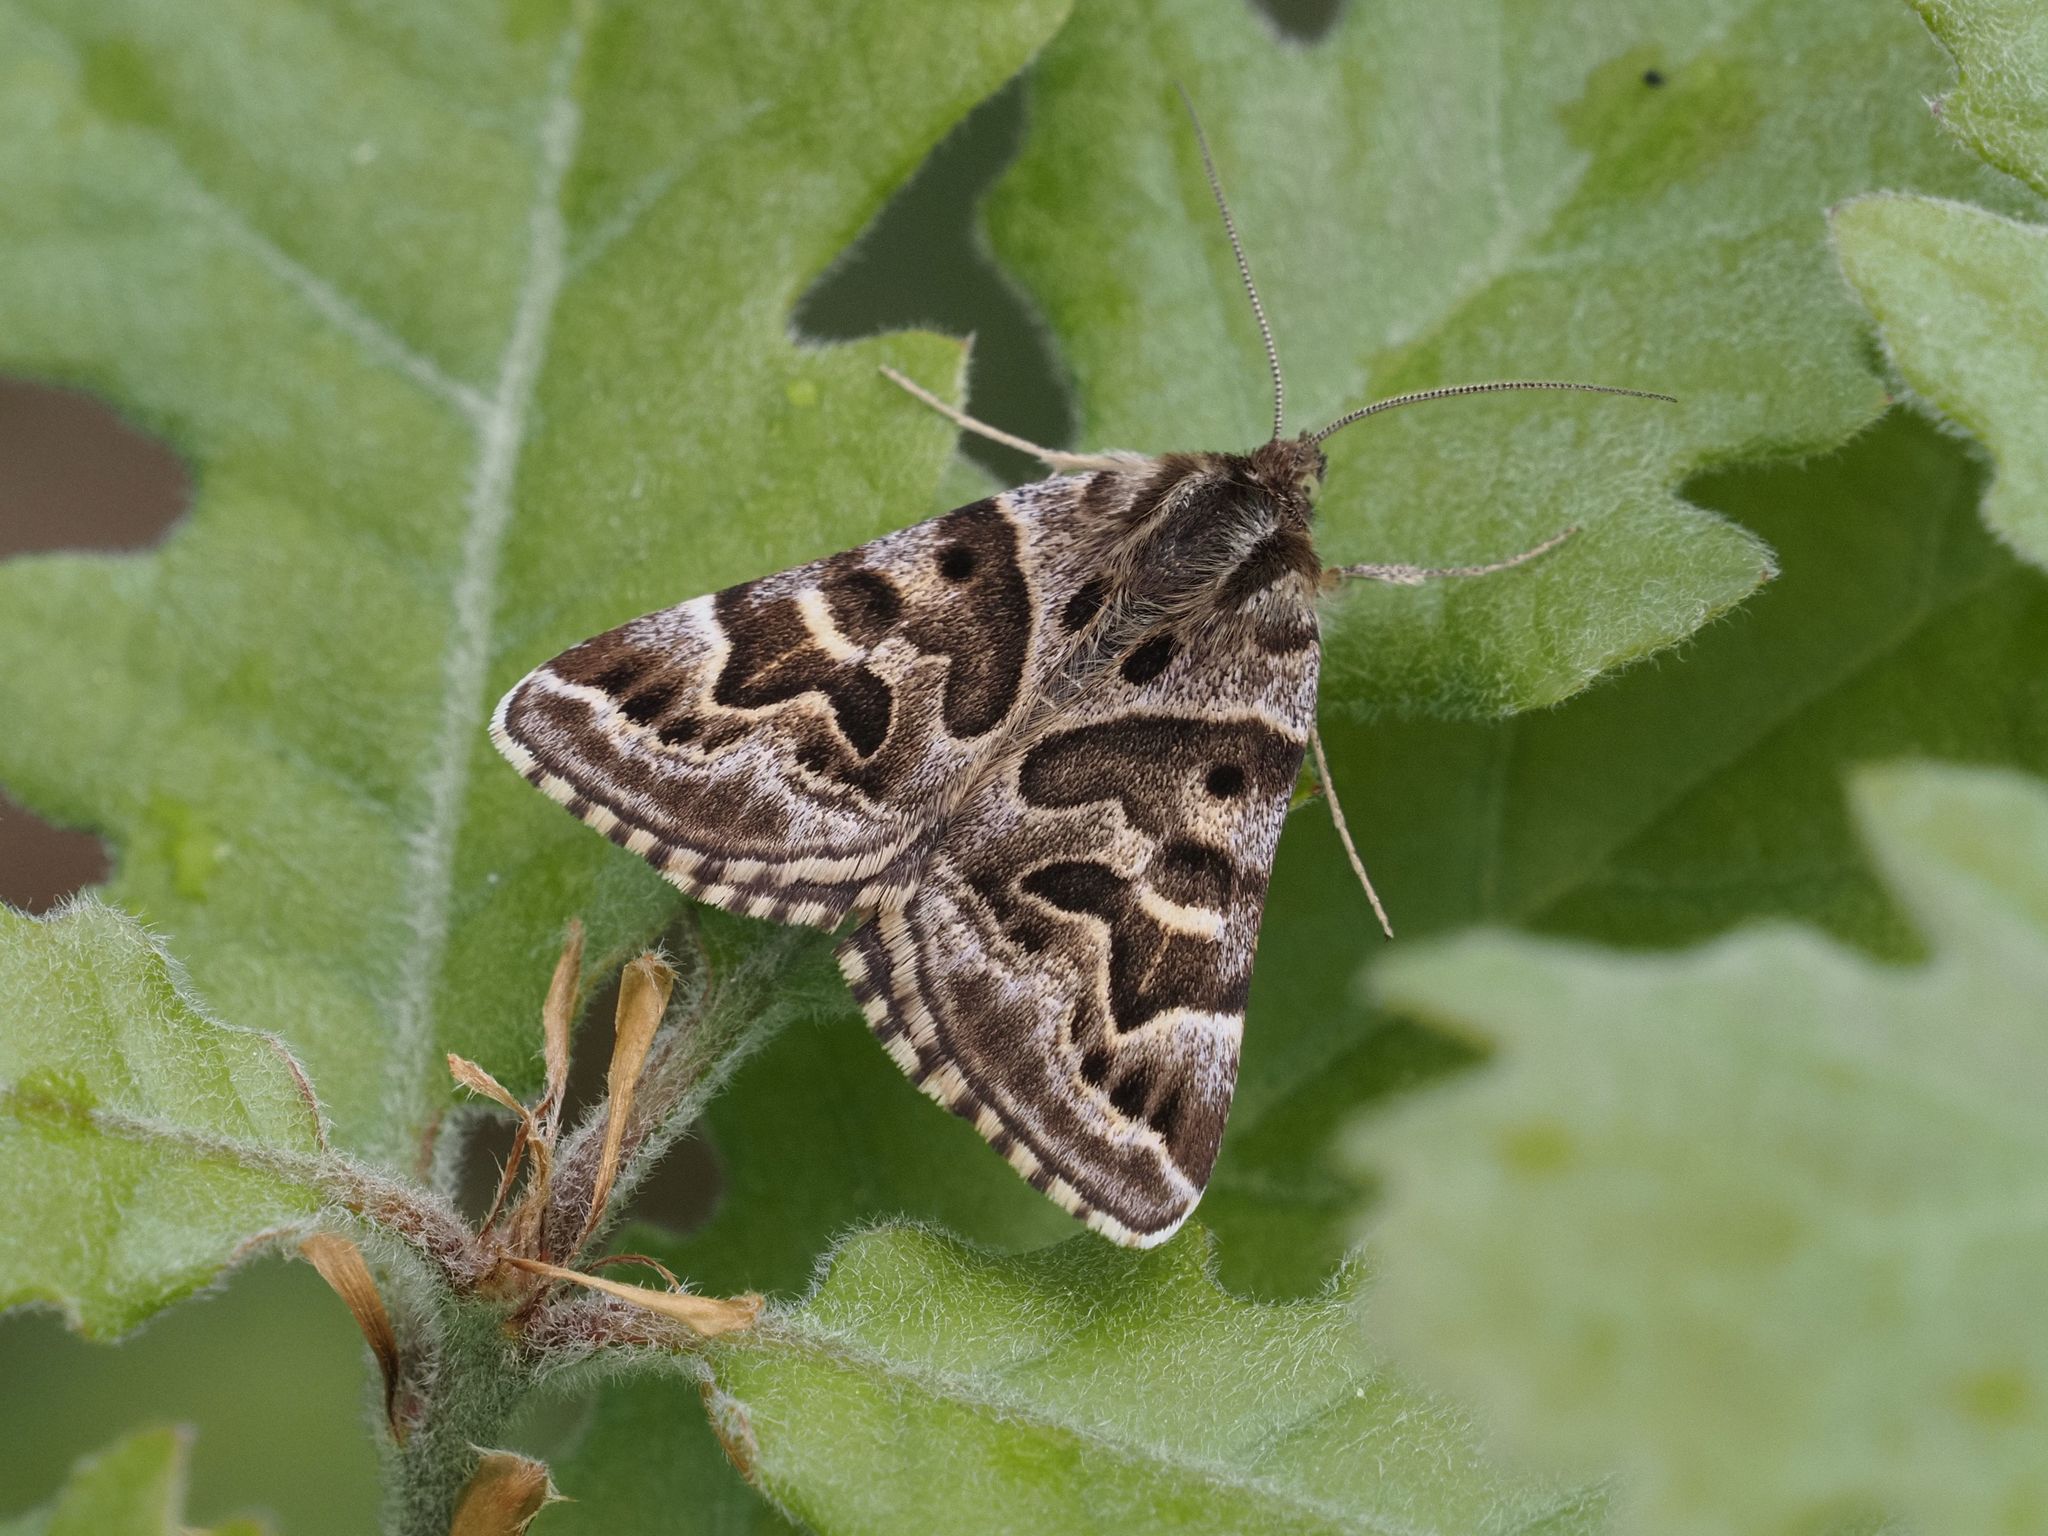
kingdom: Animalia
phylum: Arthropoda
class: Insecta
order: Lepidoptera
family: Erebidae
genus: Callistege
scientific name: Callistege mi
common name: Mother shipton
